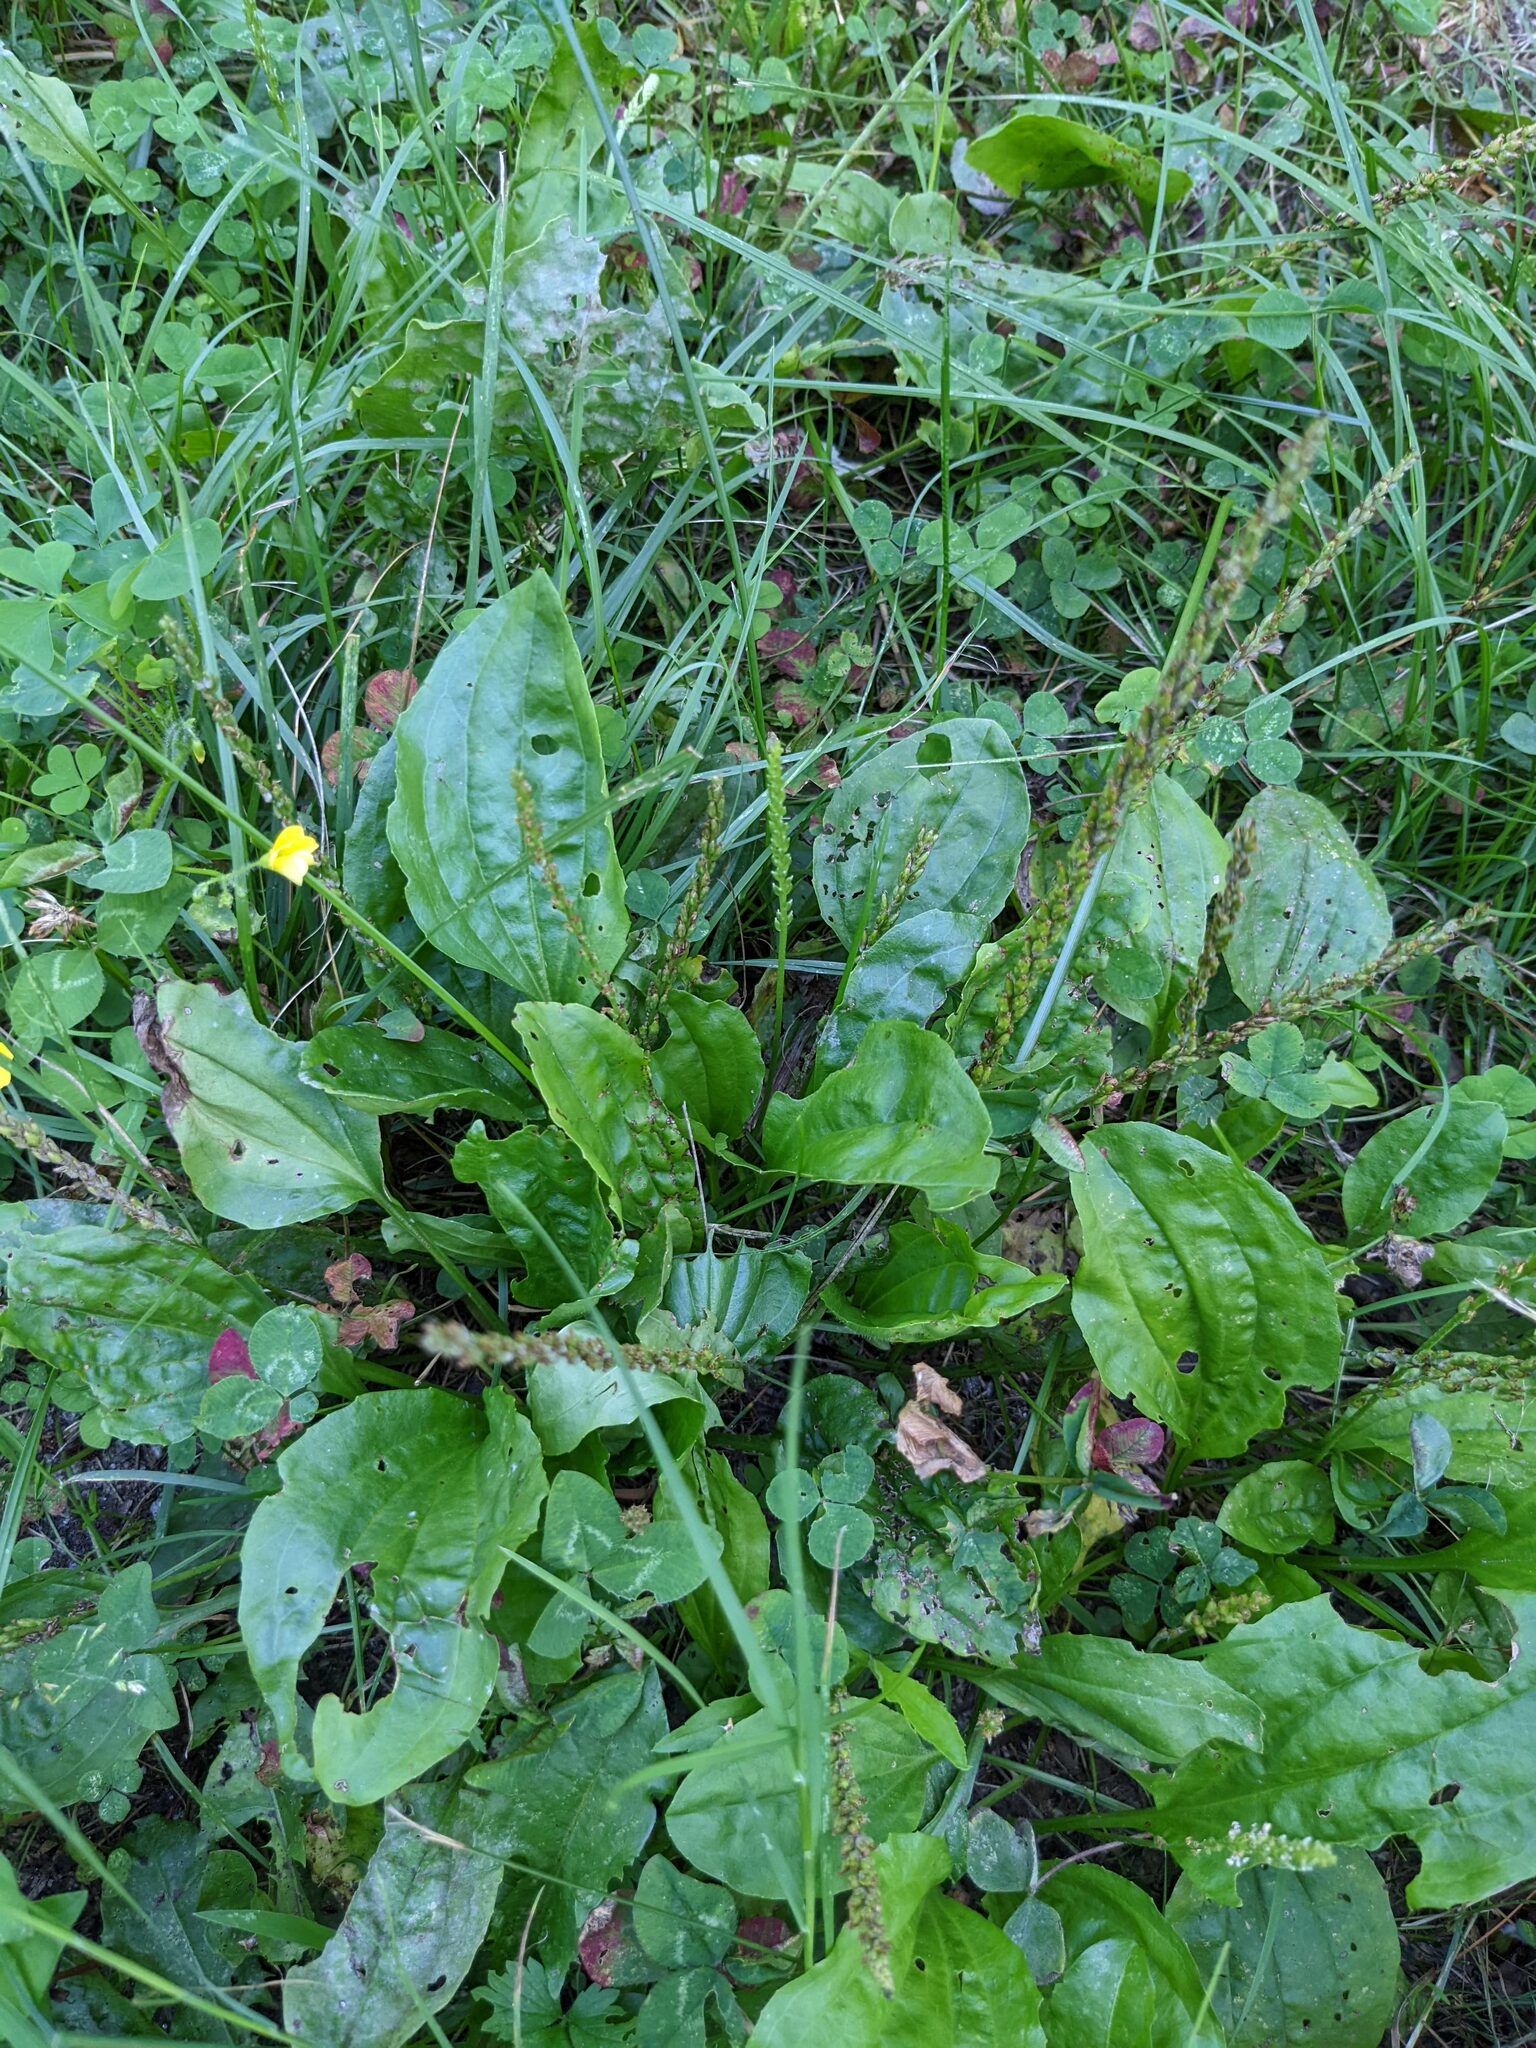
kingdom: Plantae
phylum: Tracheophyta
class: Magnoliopsida
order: Lamiales
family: Plantaginaceae
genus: Plantago
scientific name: Plantago rugelii
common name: American plantain
